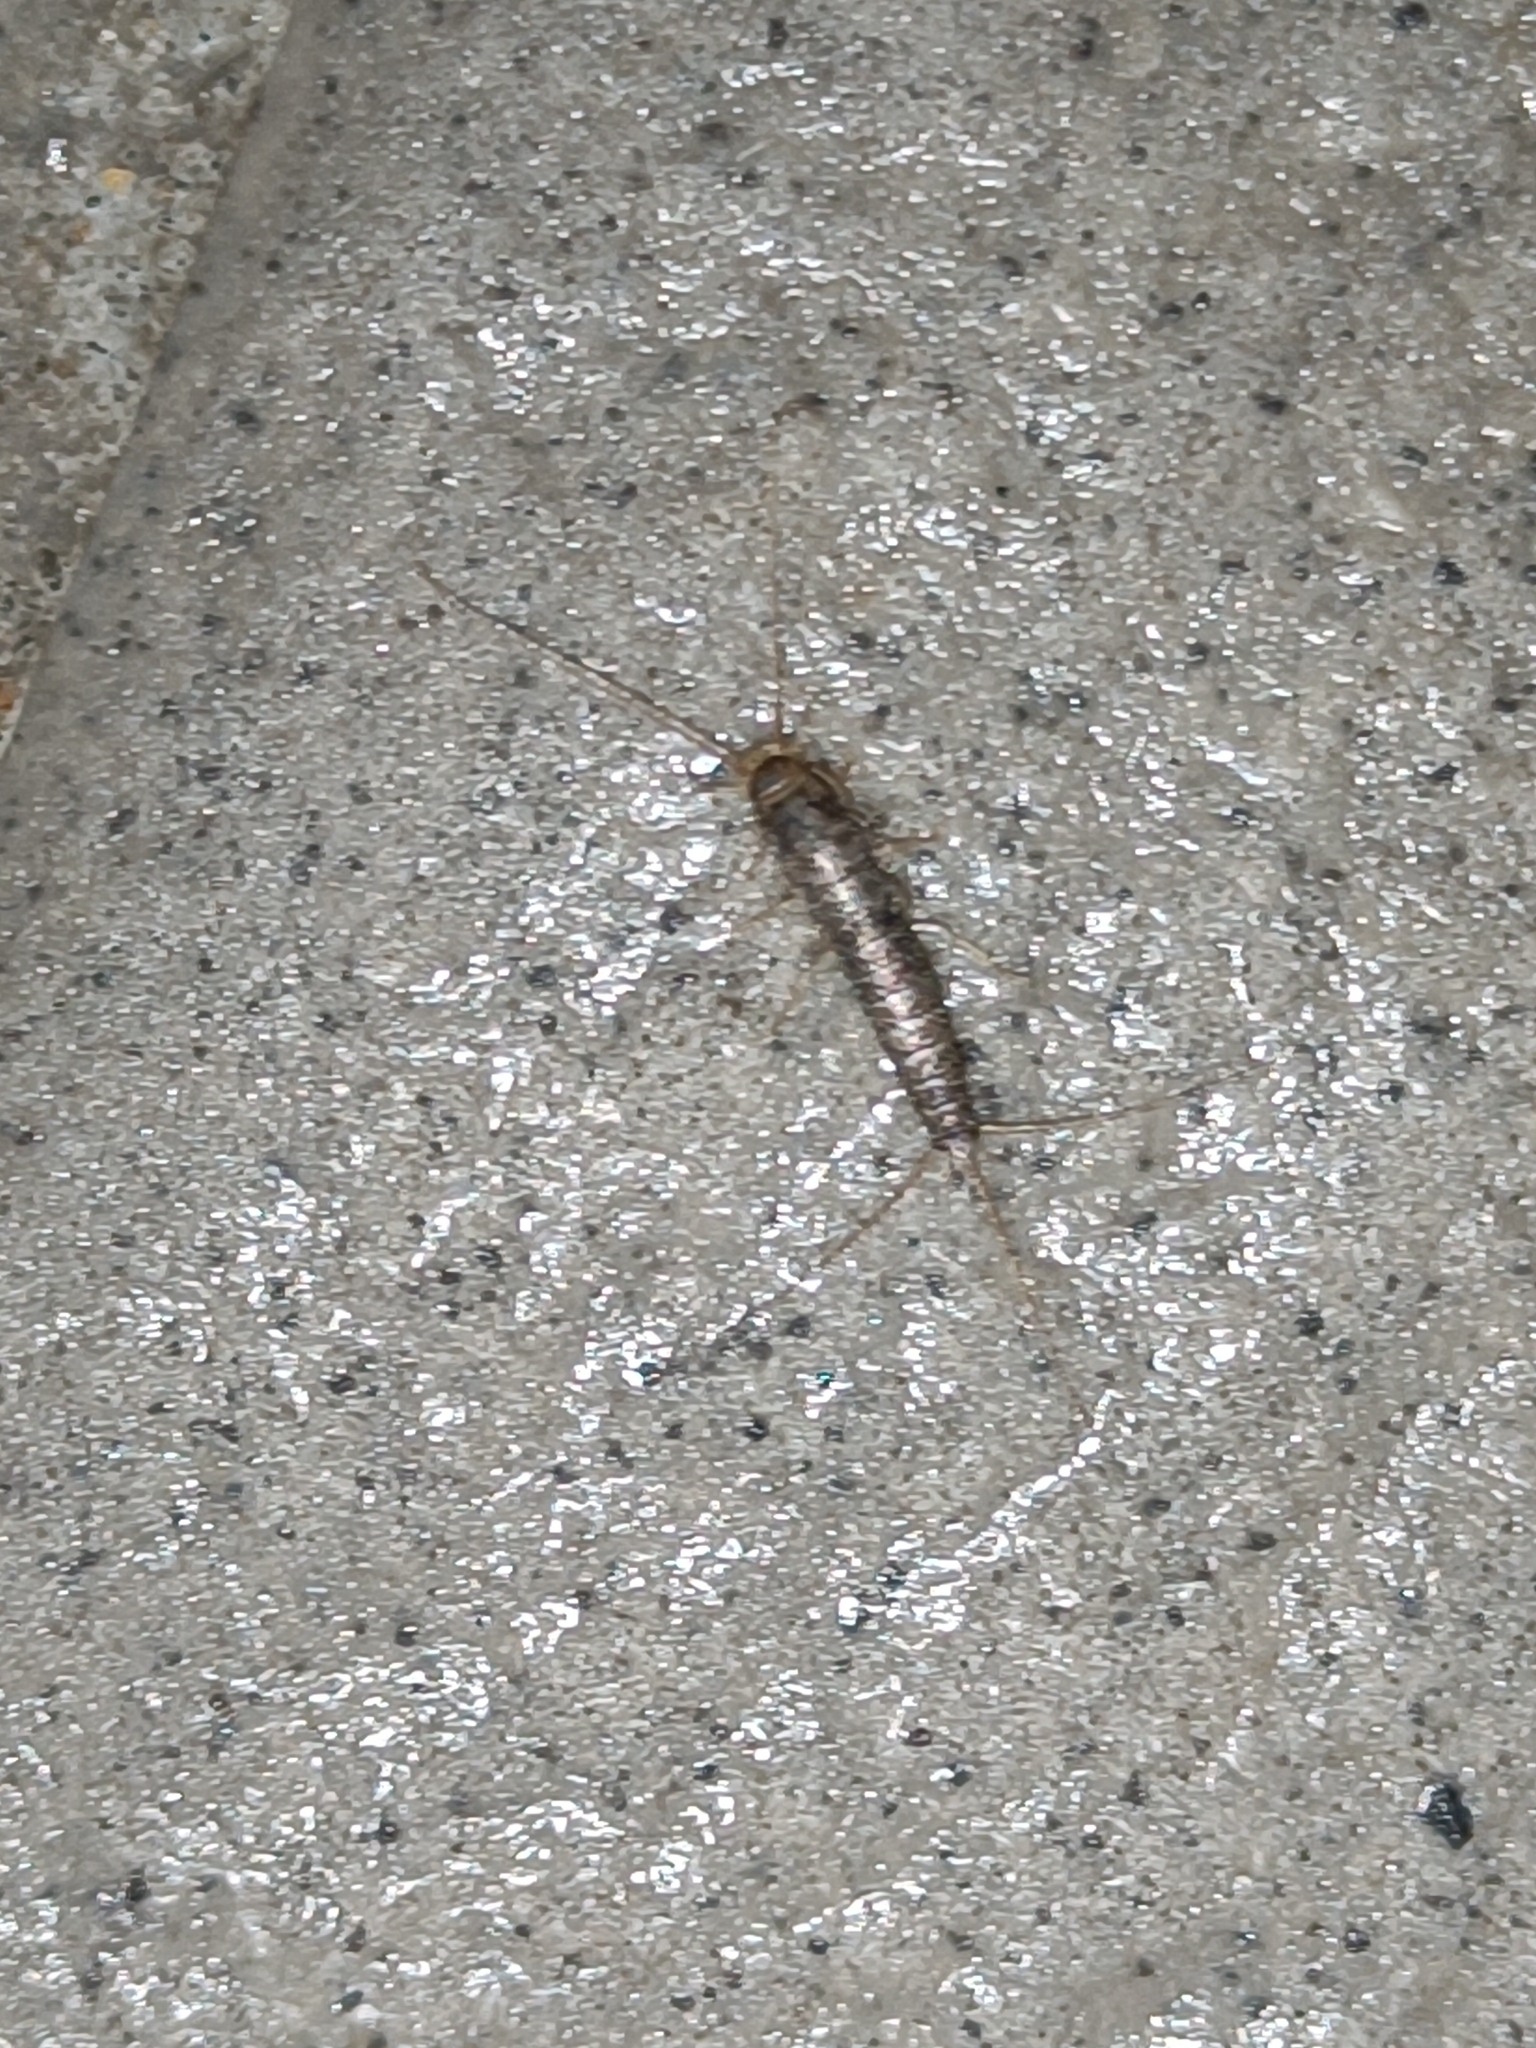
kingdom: Animalia
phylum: Arthropoda
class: Insecta
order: Zygentoma
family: Lepismatidae
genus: Ctenolepisma
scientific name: Ctenolepisma longicaudatum
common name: Silverfish
